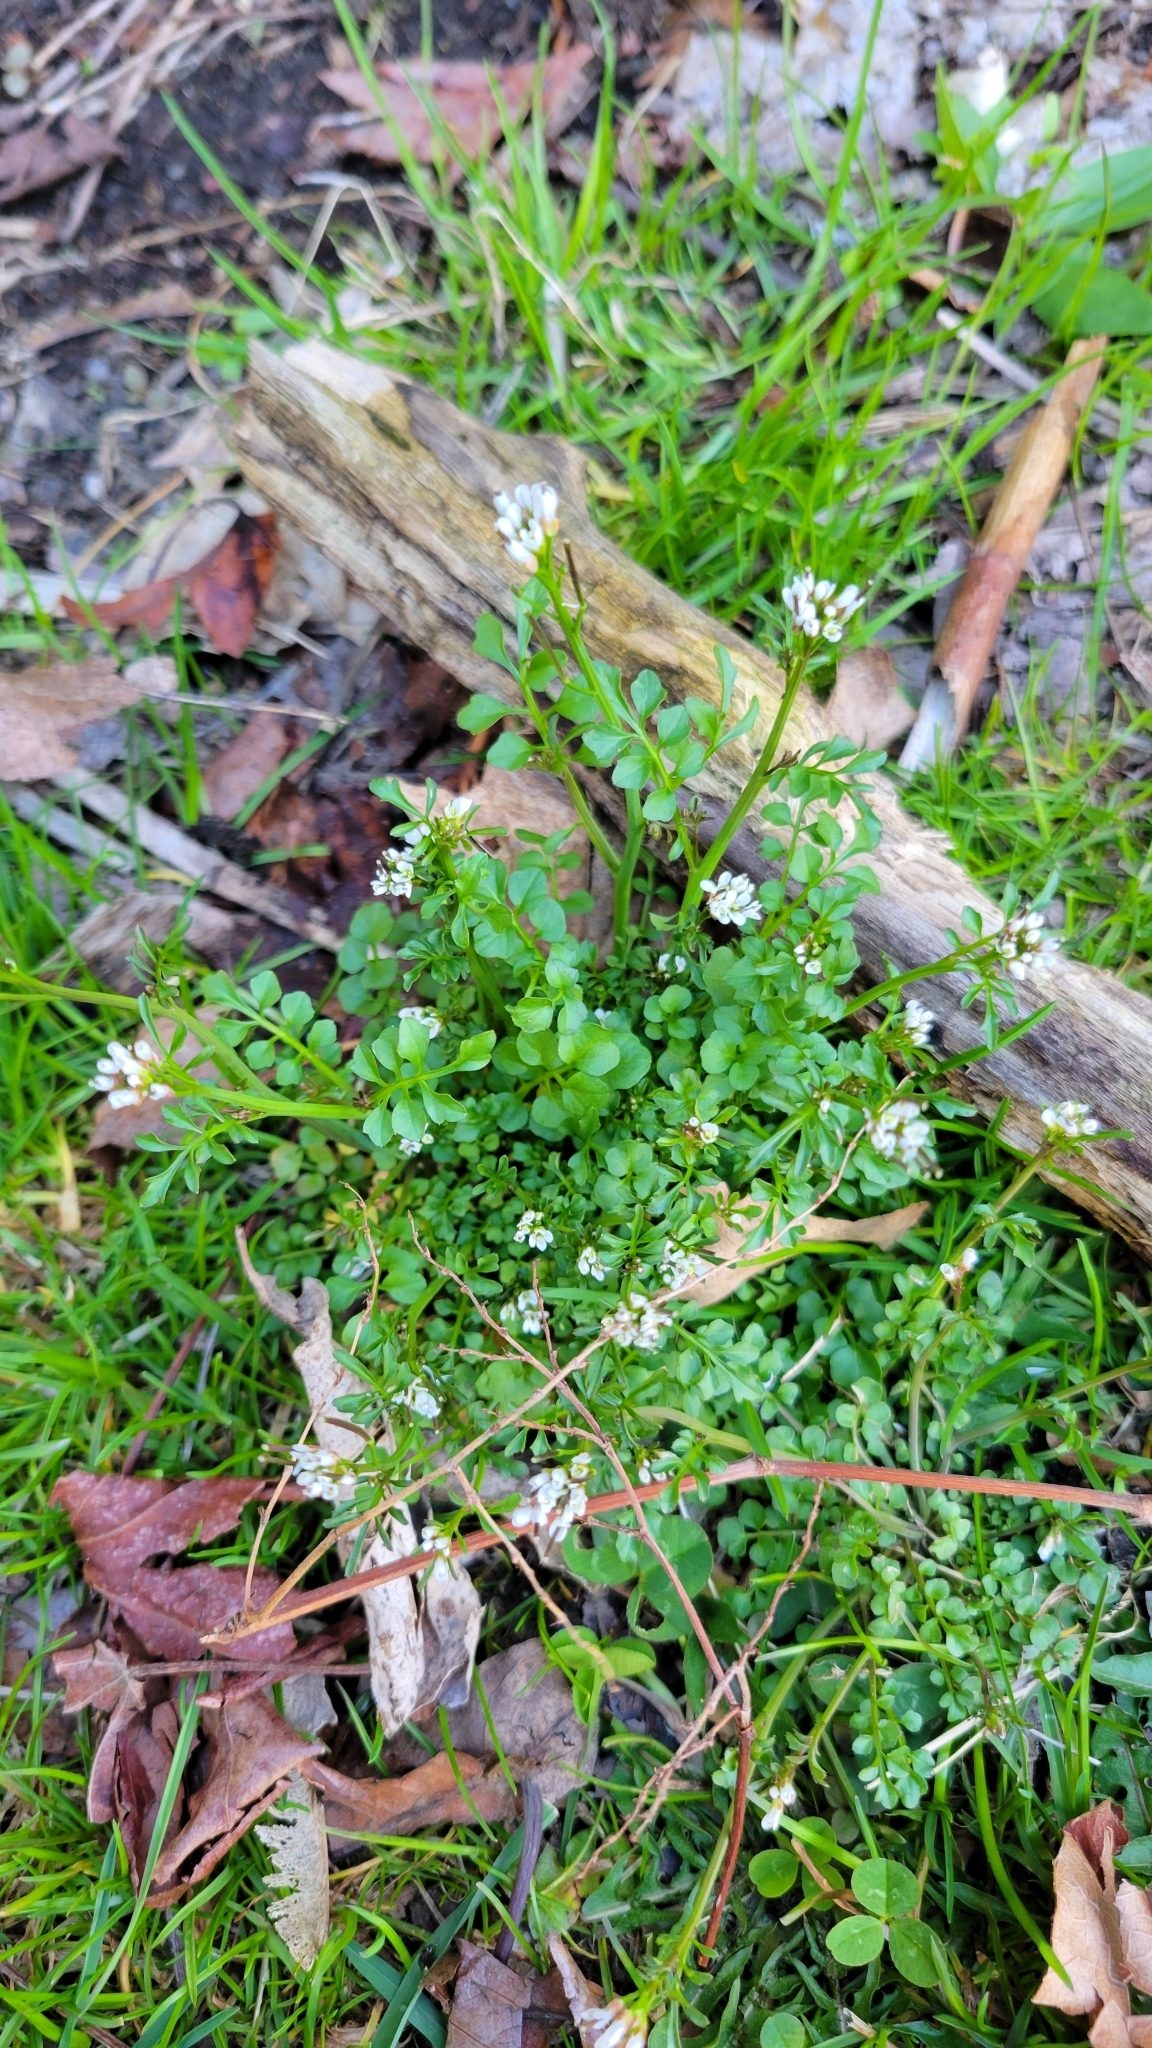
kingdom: Plantae
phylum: Tracheophyta
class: Magnoliopsida
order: Brassicales
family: Brassicaceae
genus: Cardamine
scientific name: Cardamine hirsuta
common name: Hairy bittercress
